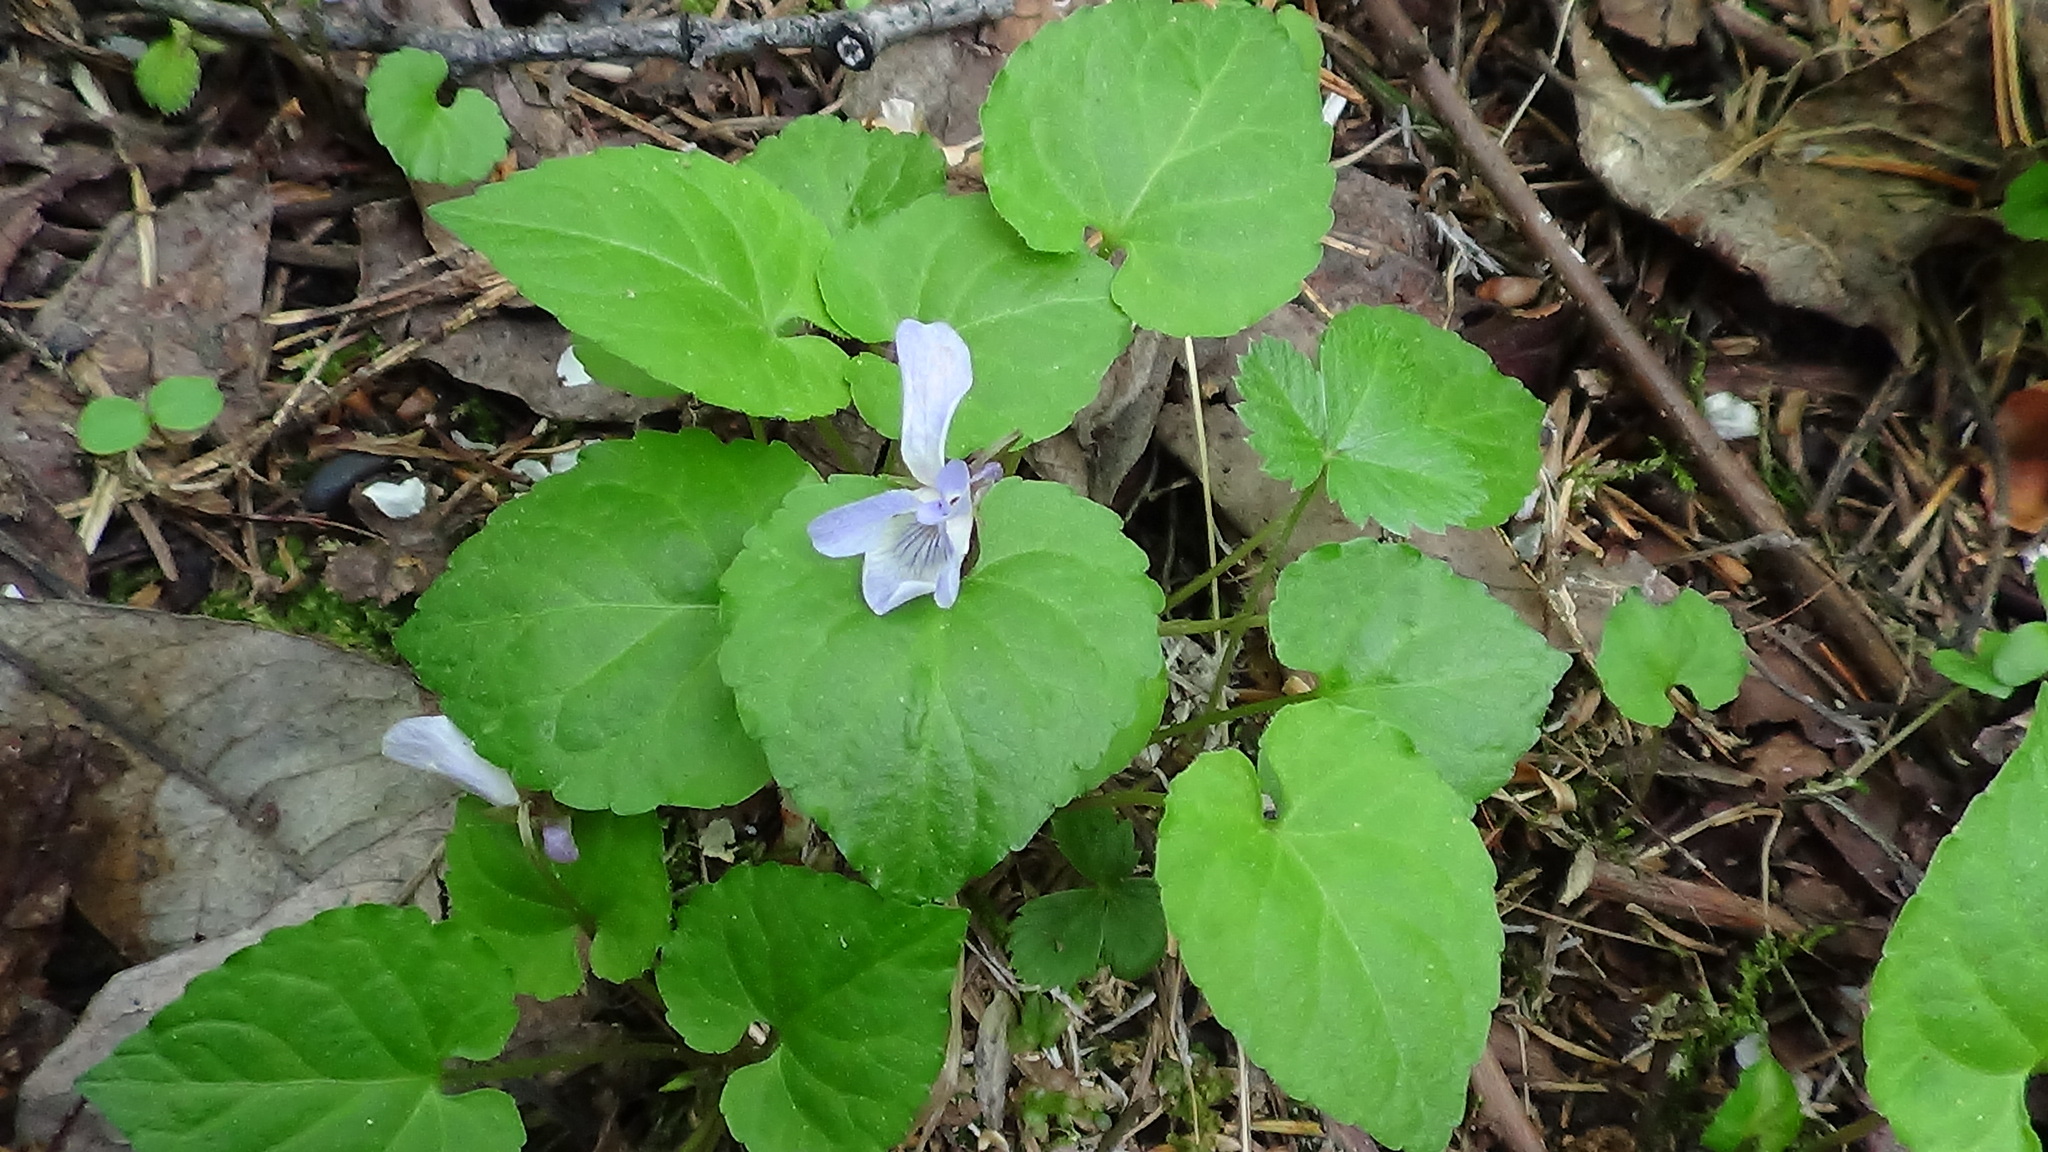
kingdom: Plantae
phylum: Tracheophyta
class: Magnoliopsida
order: Malpighiales
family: Violaceae
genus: Viola
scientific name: Viola selkirkii
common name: Selkirk's violet
